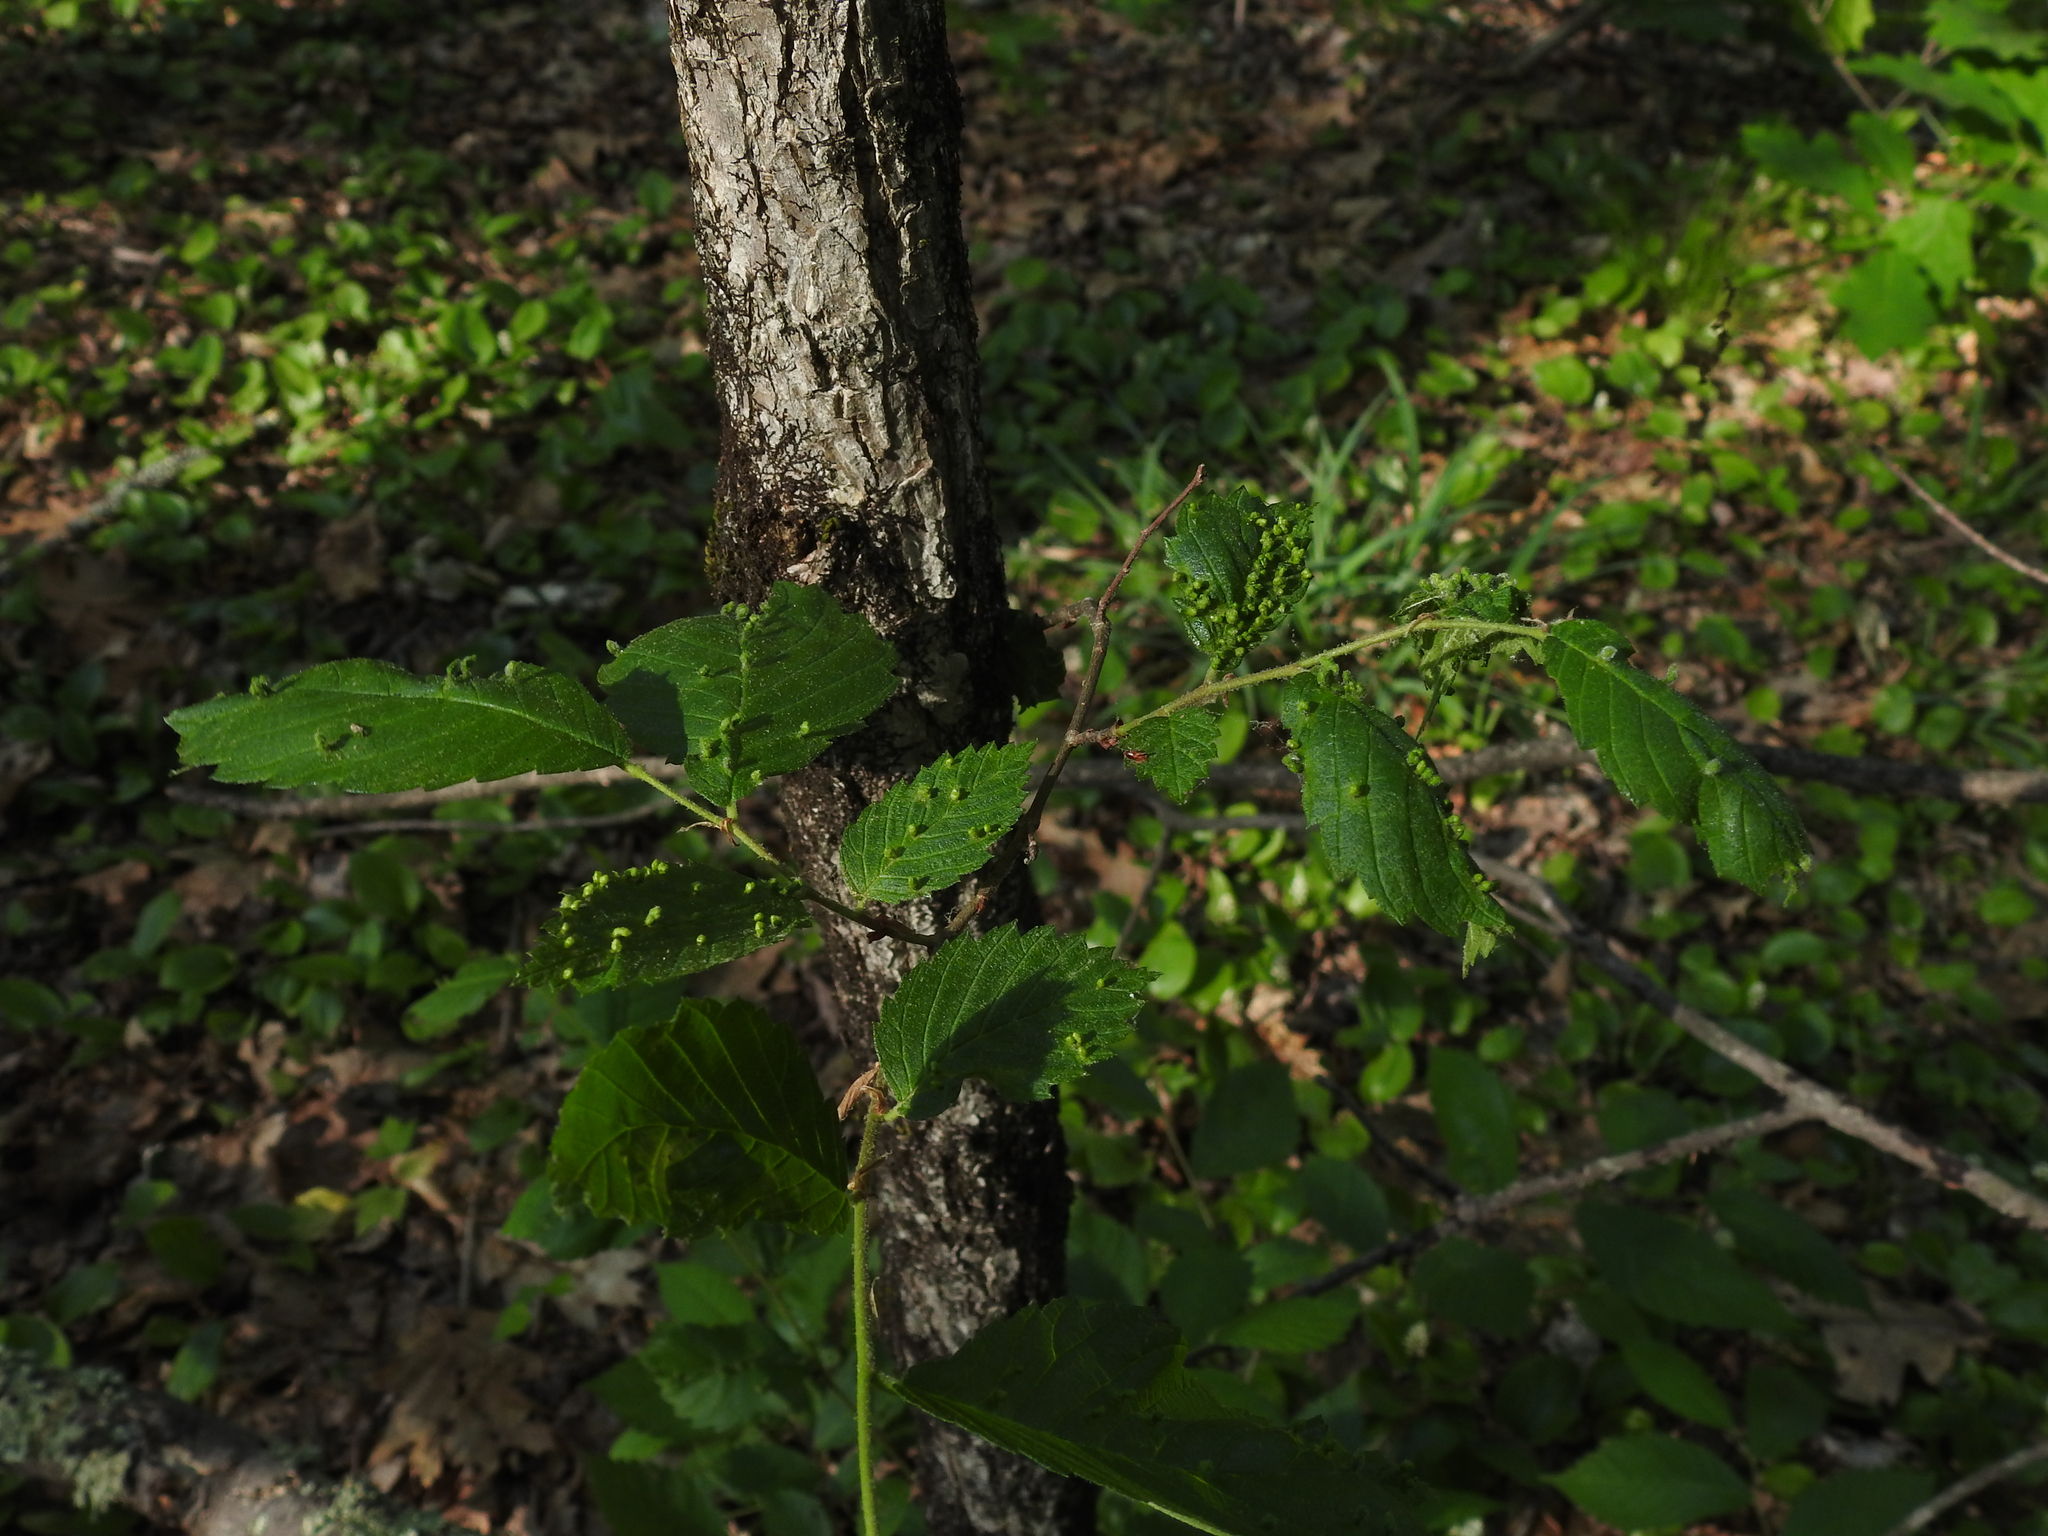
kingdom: Animalia
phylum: Arthropoda
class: Arachnida
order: Trombidiformes
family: Eriophyidae
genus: Aceria
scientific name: Aceria
